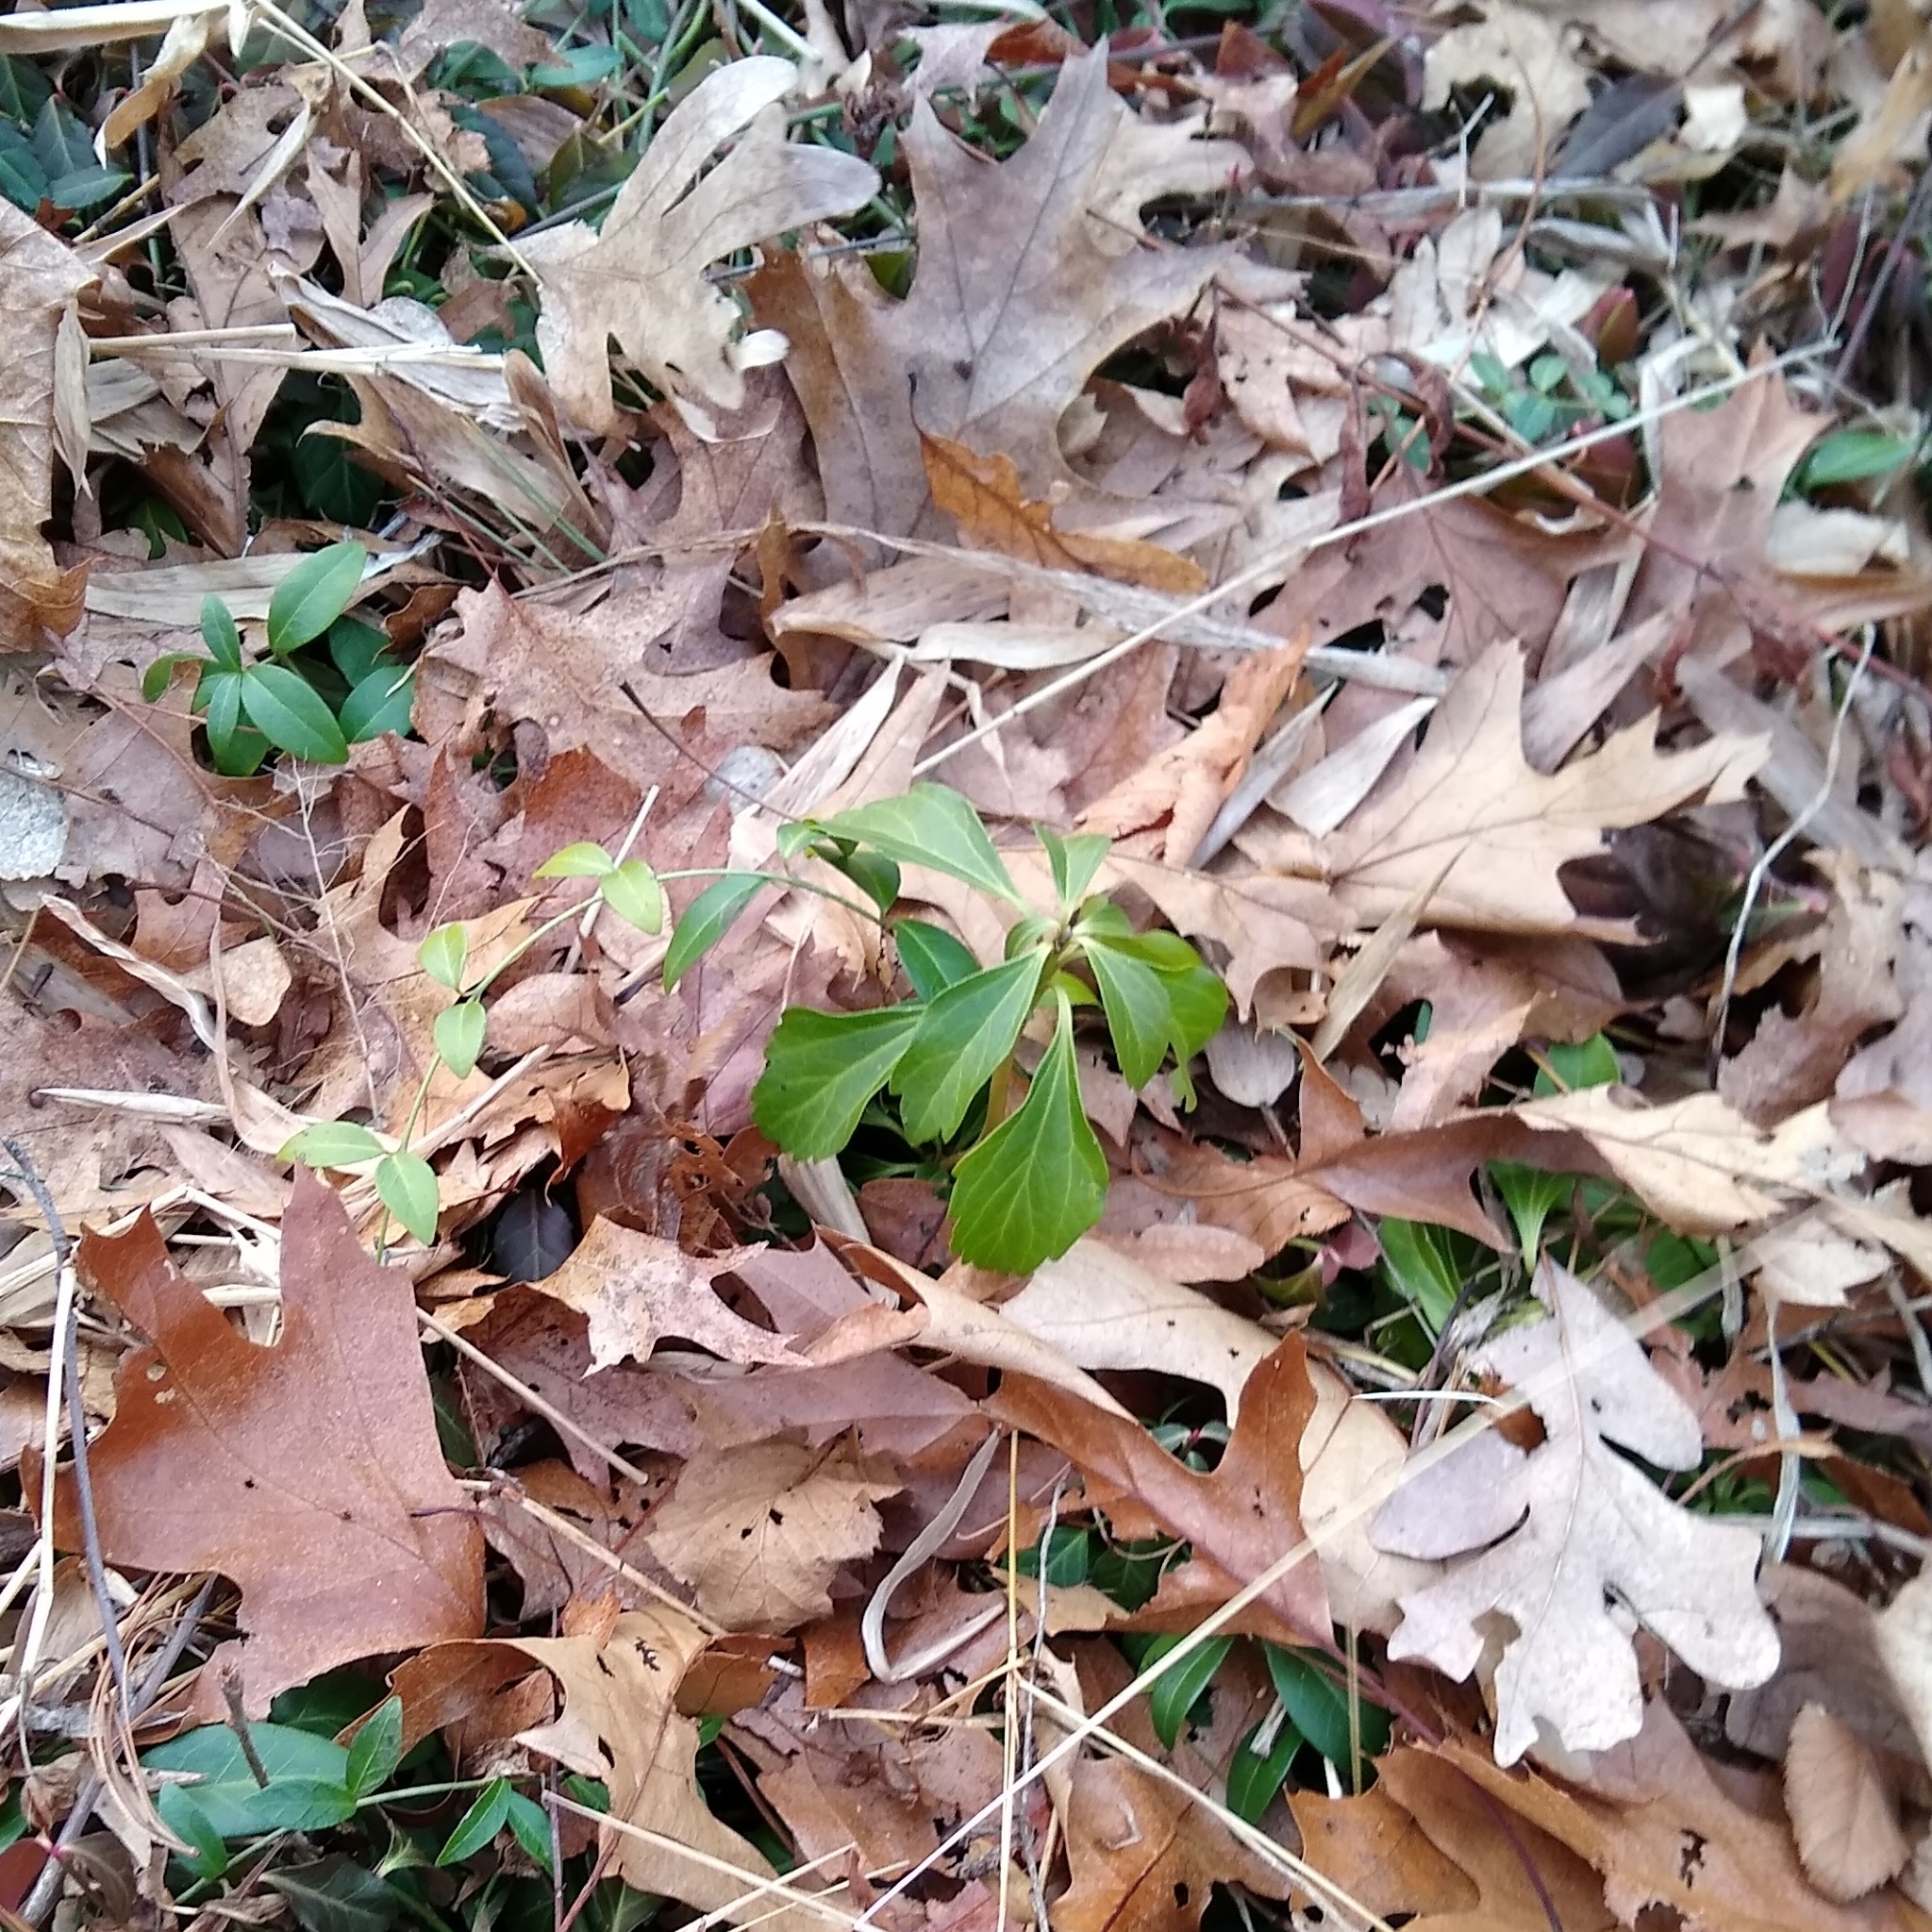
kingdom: Plantae
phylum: Tracheophyta
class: Magnoliopsida
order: Buxales
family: Buxaceae
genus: Pachysandra
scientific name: Pachysandra terminalis
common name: Japanese pachysandra
